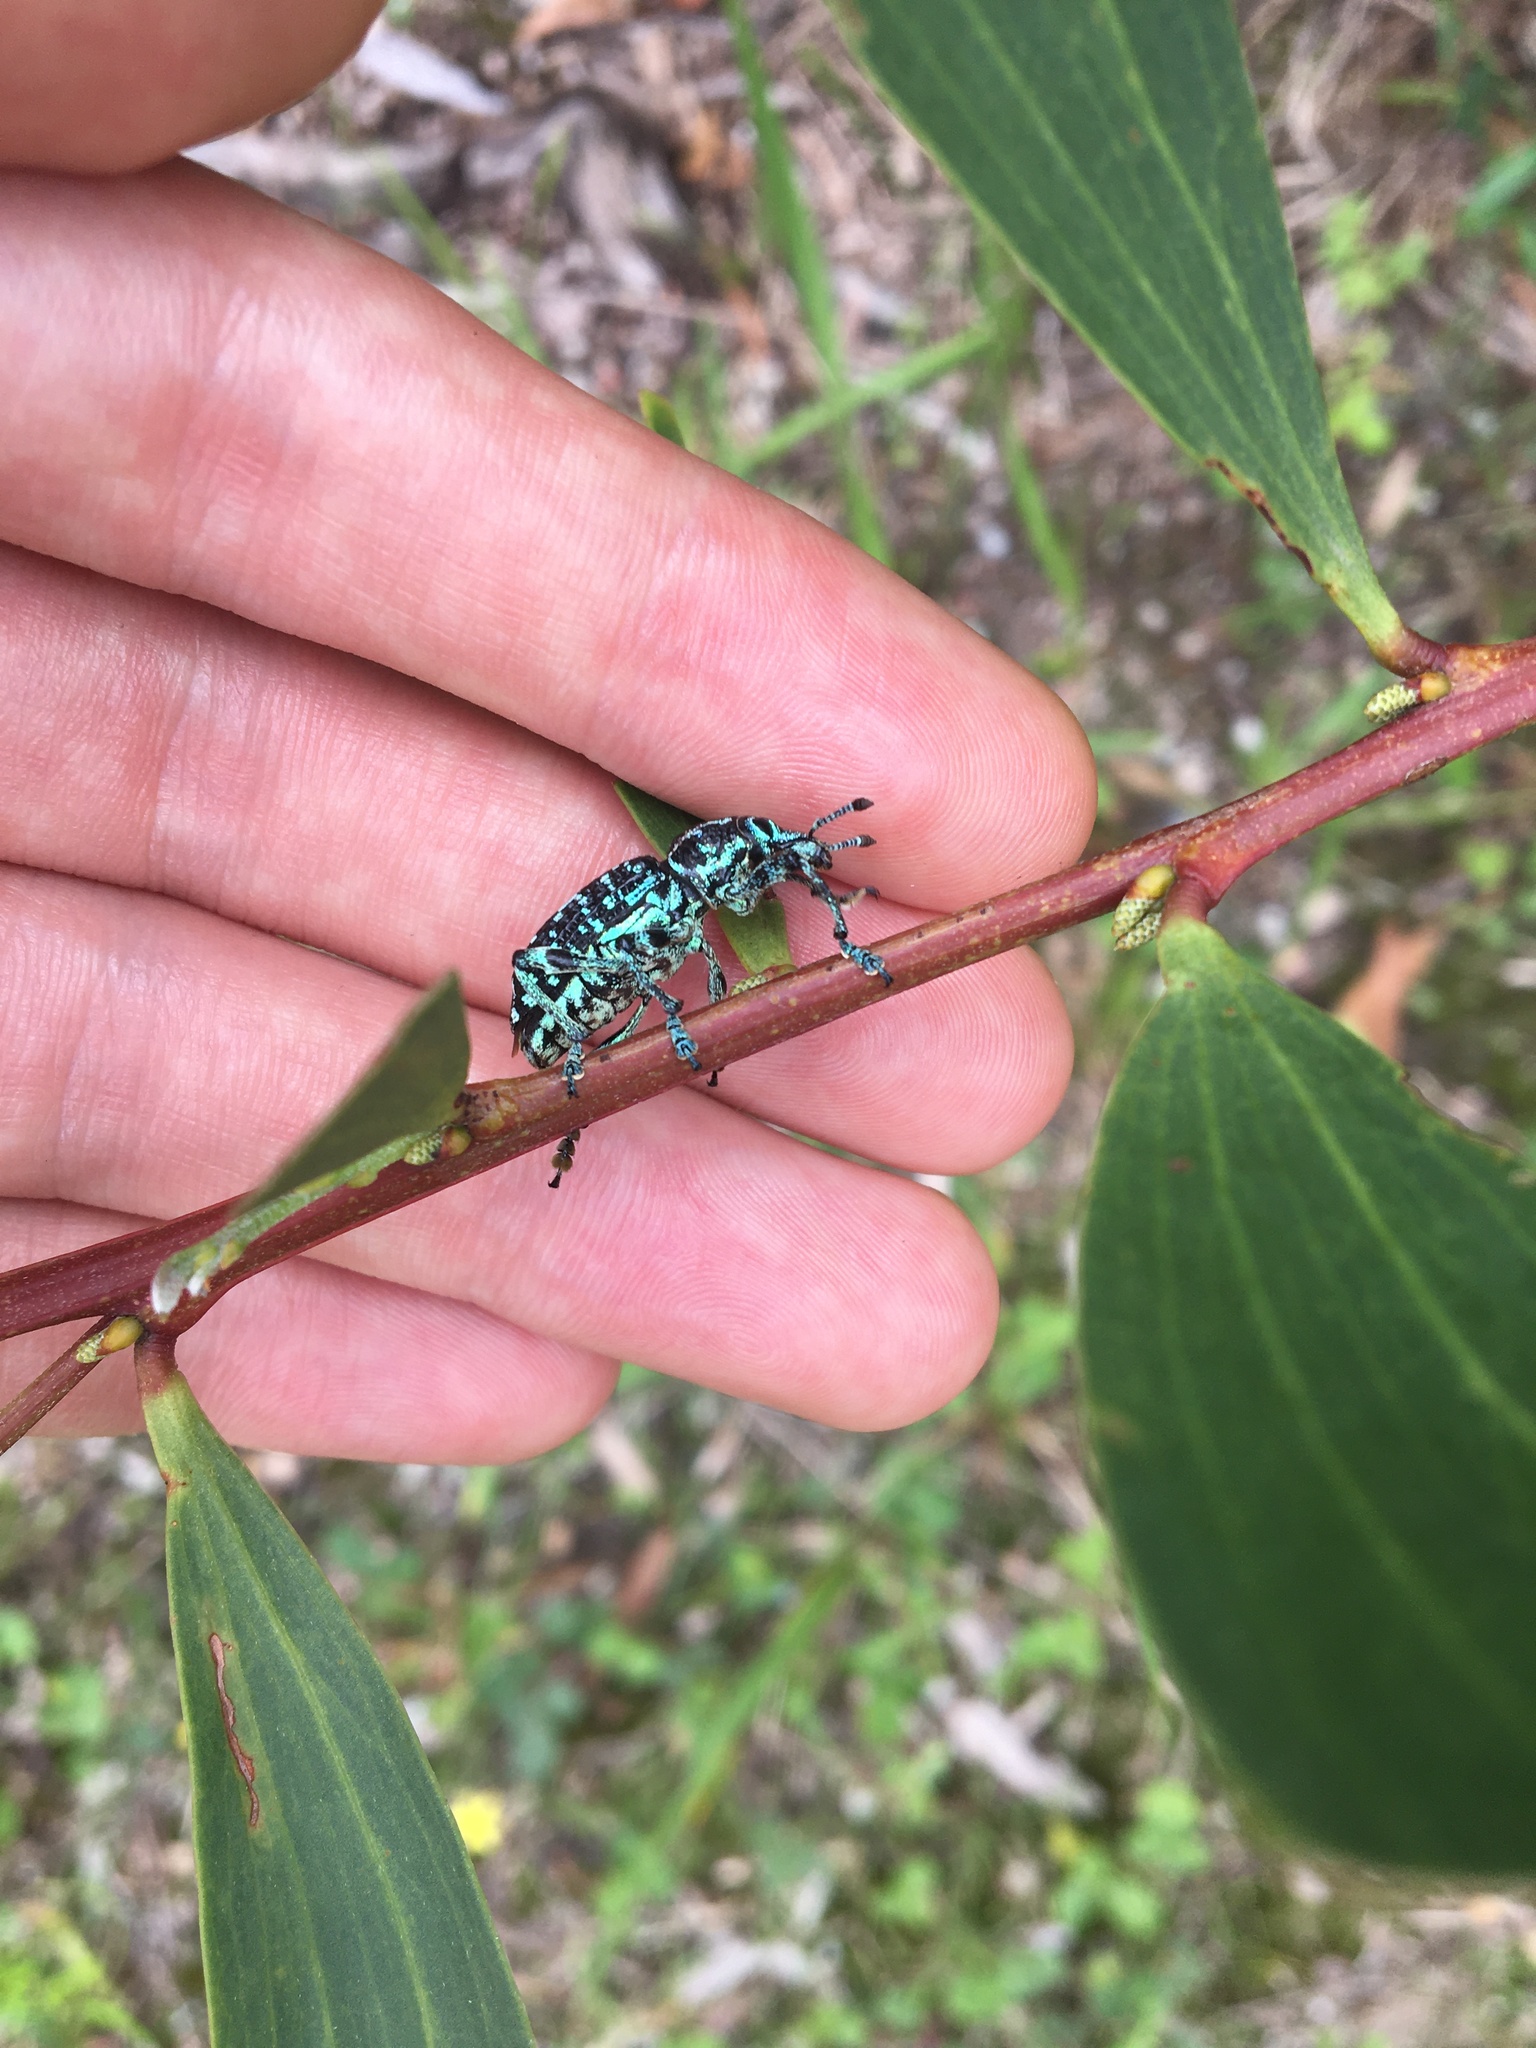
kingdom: Animalia
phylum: Arthropoda
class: Insecta
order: Coleoptera
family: Curculionidae
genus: Chrysolopus
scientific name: Chrysolopus spectabilis
